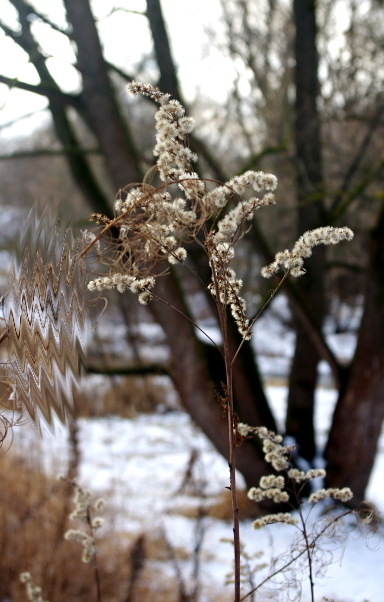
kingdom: Plantae
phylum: Tracheophyta
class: Magnoliopsida
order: Asterales
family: Asteraceae
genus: Solidago
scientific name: Solidago gigantea
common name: Giant goldenrod
